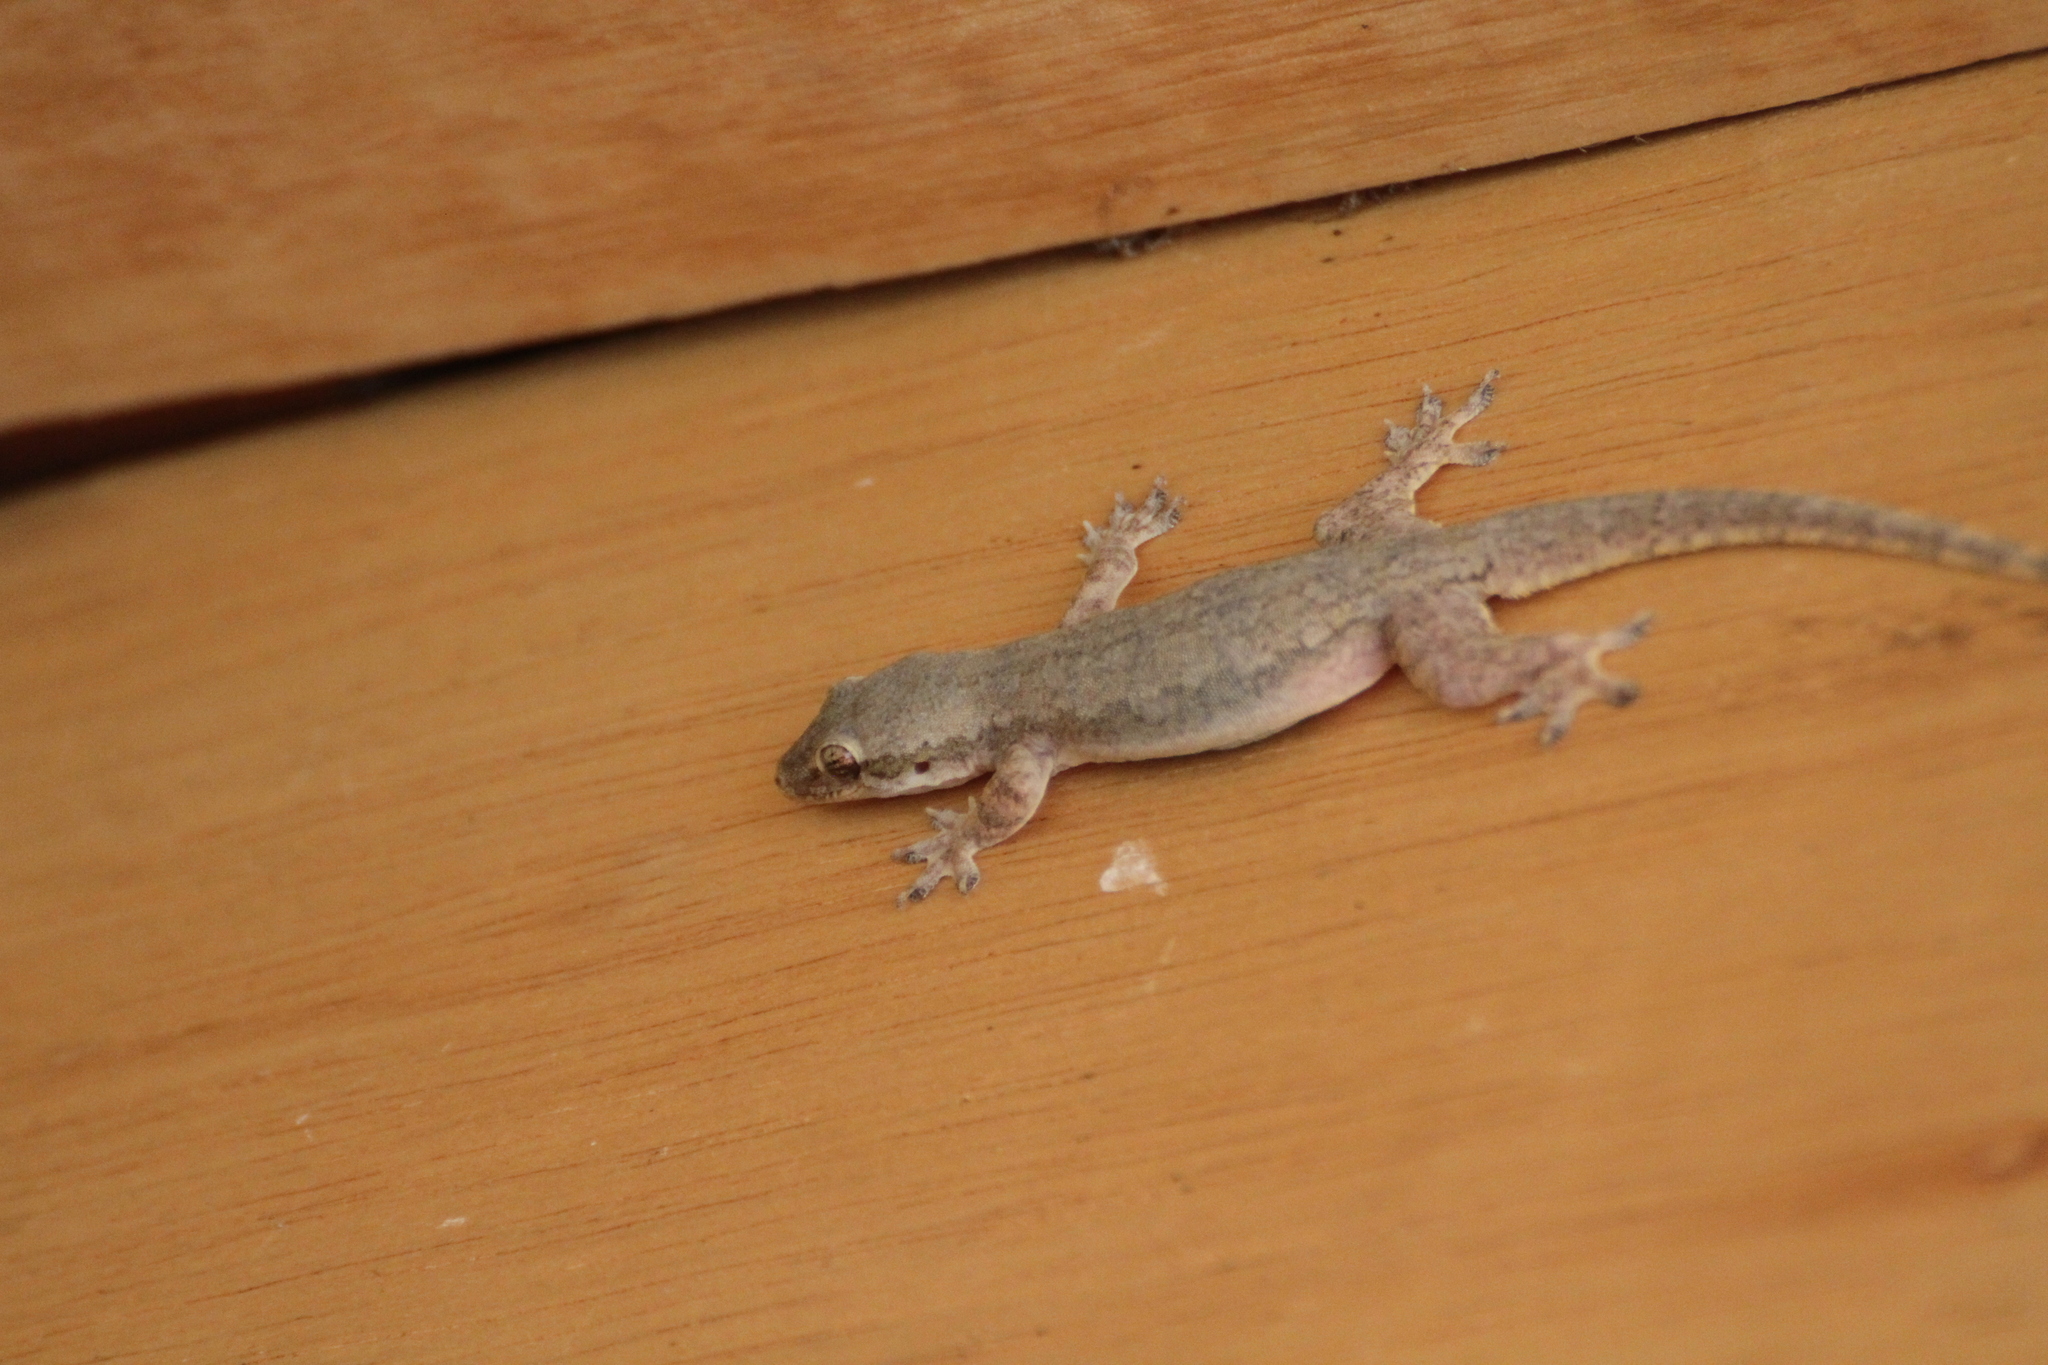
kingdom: Animalia
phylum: Chordata
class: Squamata
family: Gekkonidae
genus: Hemidactylus
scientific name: Hemidactylus platyurus
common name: Flat-tailed house gecko
